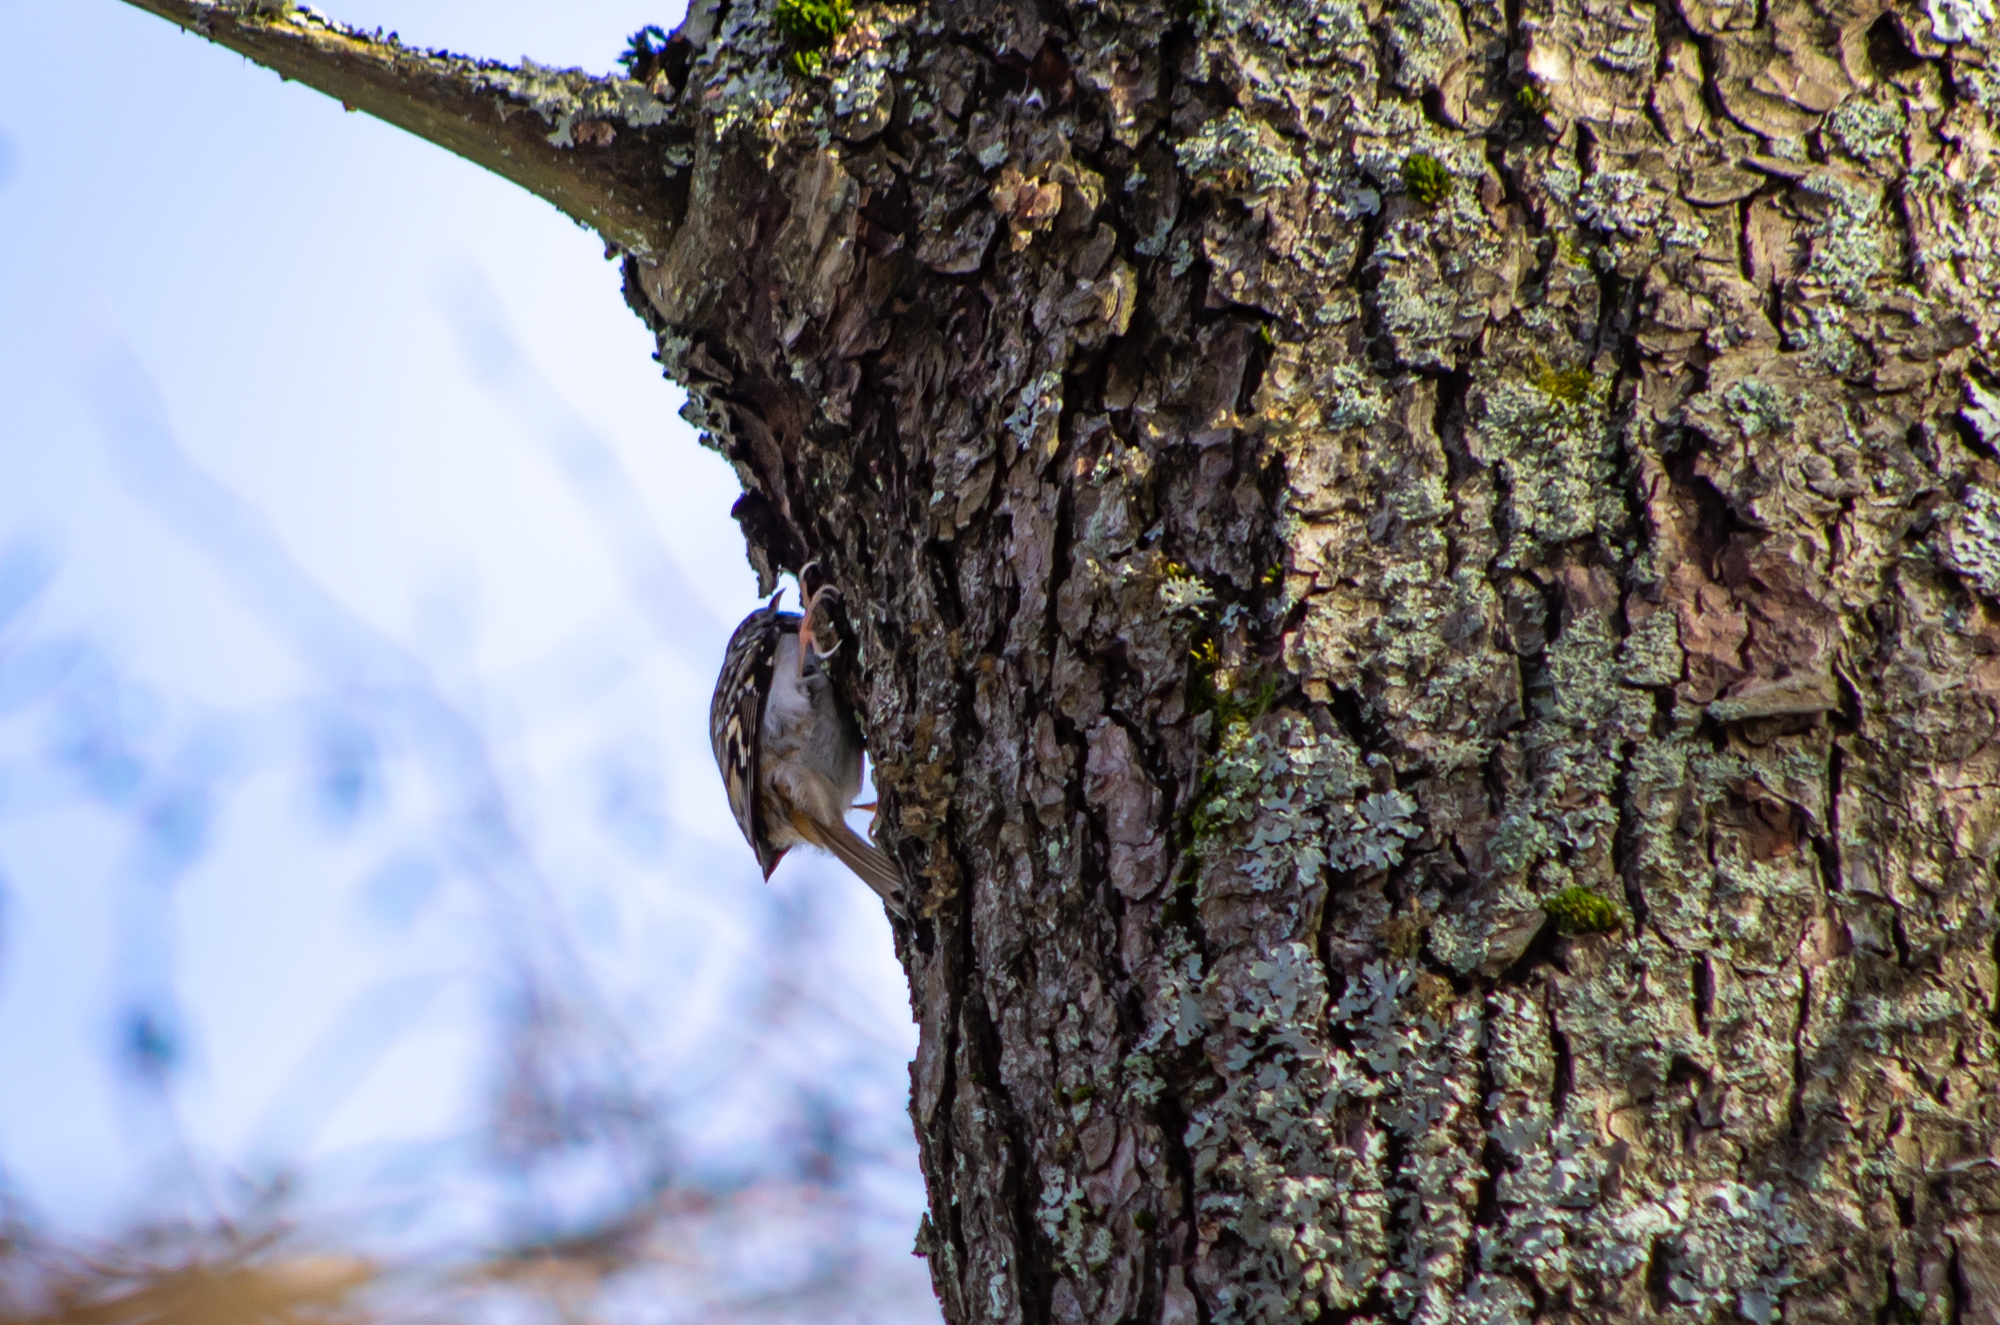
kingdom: Animalia
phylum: Chordata
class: Aves
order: Passeriformes
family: Certhiidae
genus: Certhia
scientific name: Certhia familiaris
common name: Eurasian treecreeper
